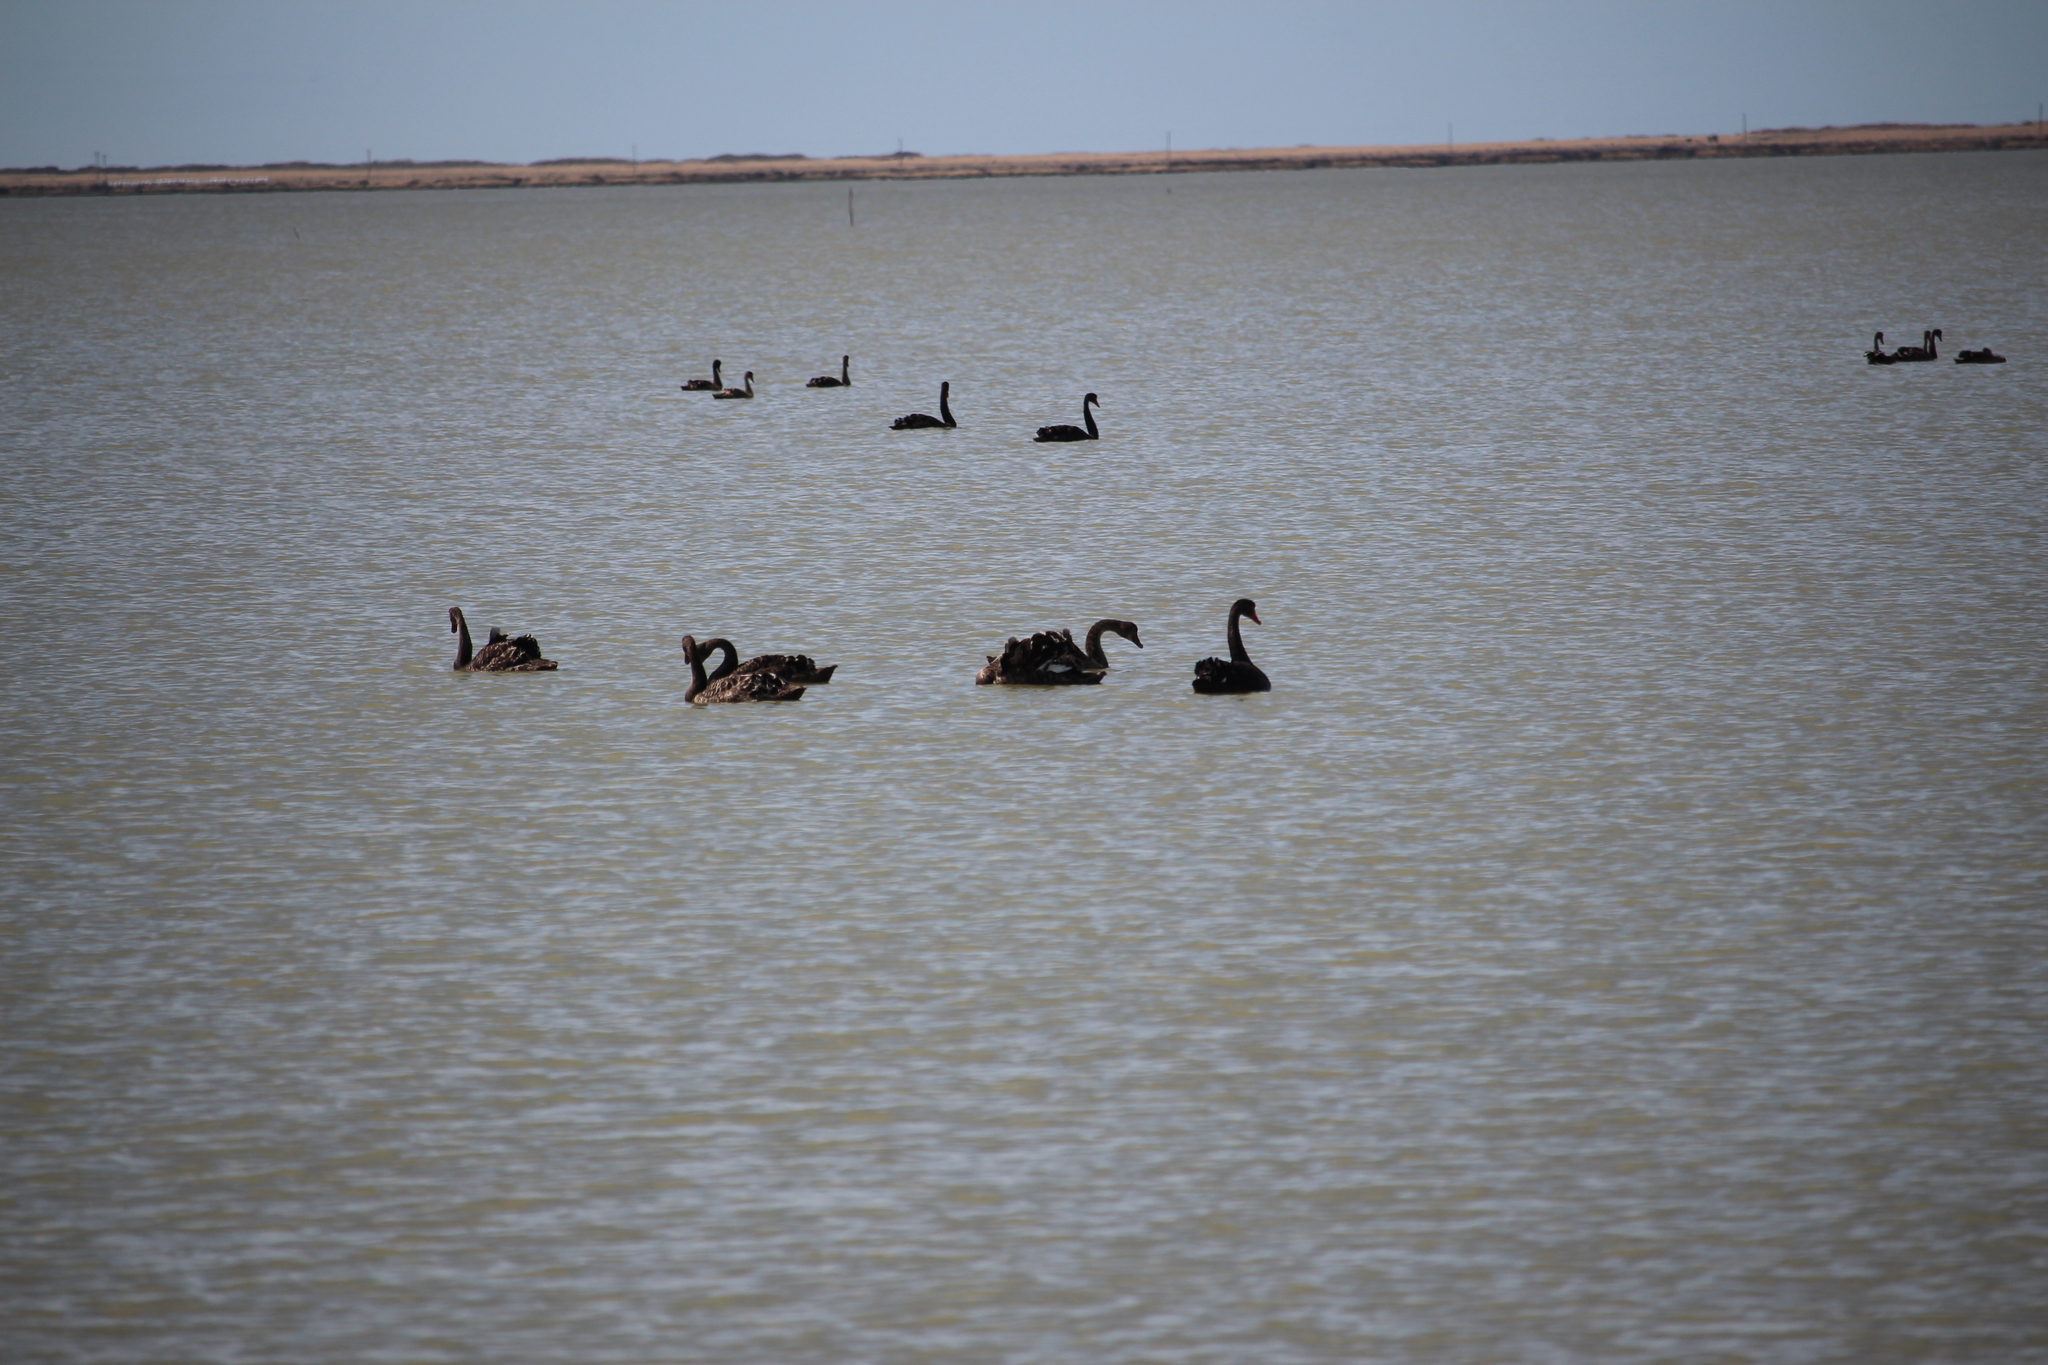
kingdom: Animalia
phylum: Chordata
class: Aves
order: Anseriformes
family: Anatidae
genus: Cygnus
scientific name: Cygnus atratus
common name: Black swan
